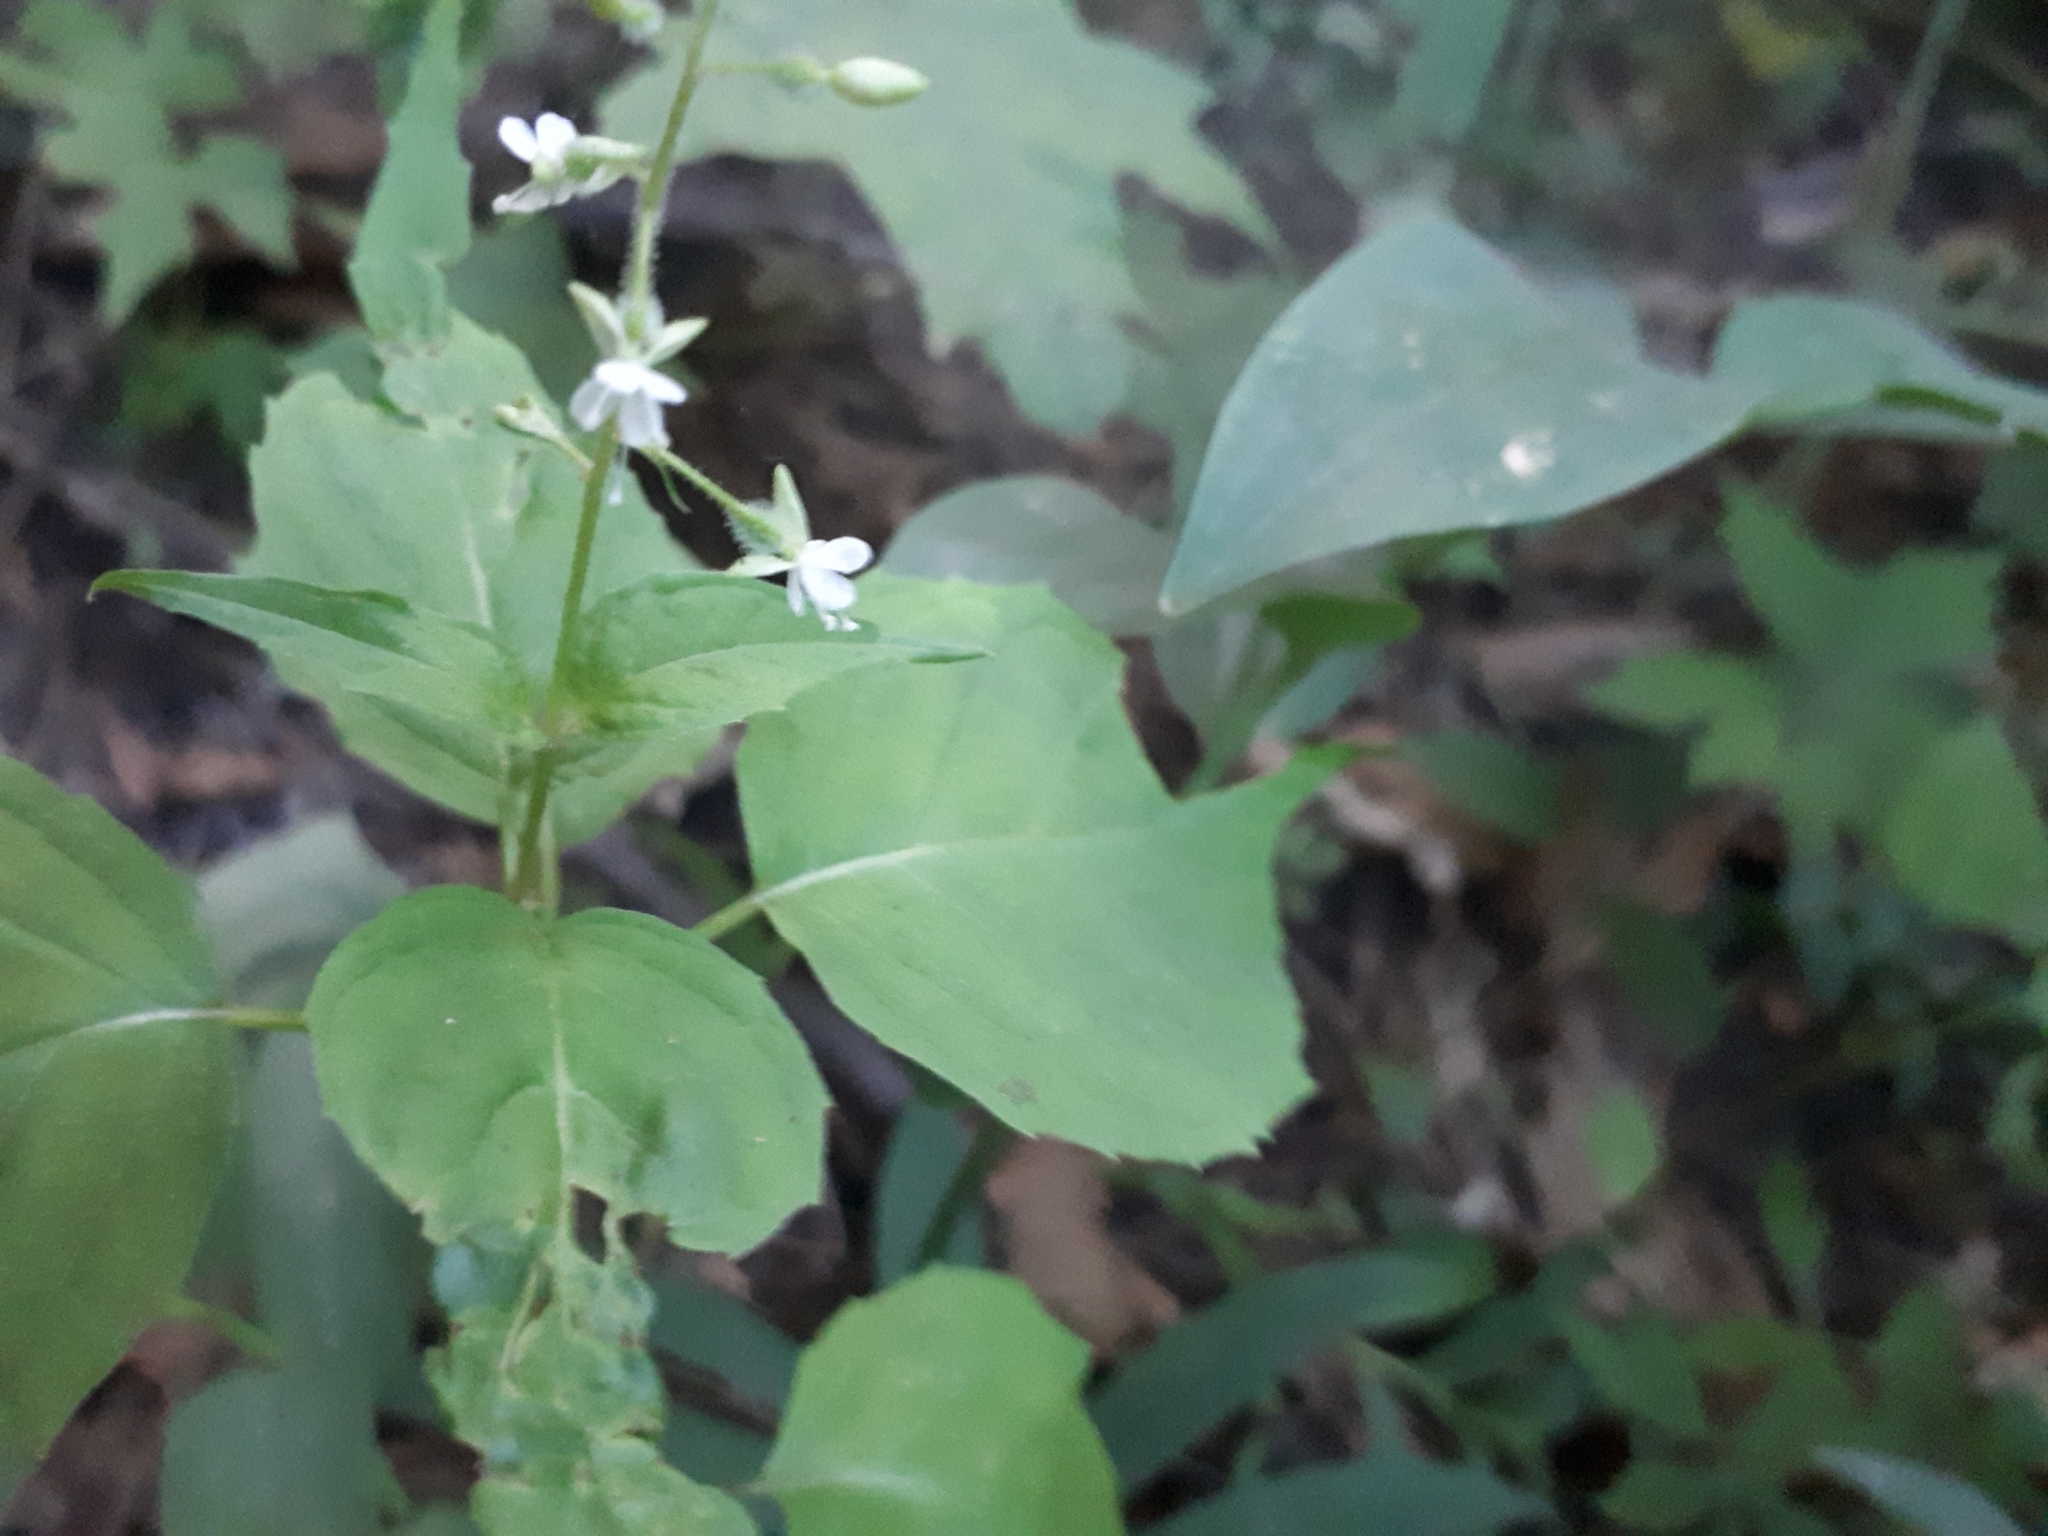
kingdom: Plantae
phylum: Tracheophyta
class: Magnoliopsida
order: Myrtales
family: Onagraceae
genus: Circaea
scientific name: Circaea canadensis
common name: Broad-leaved enchanter's nightshade
